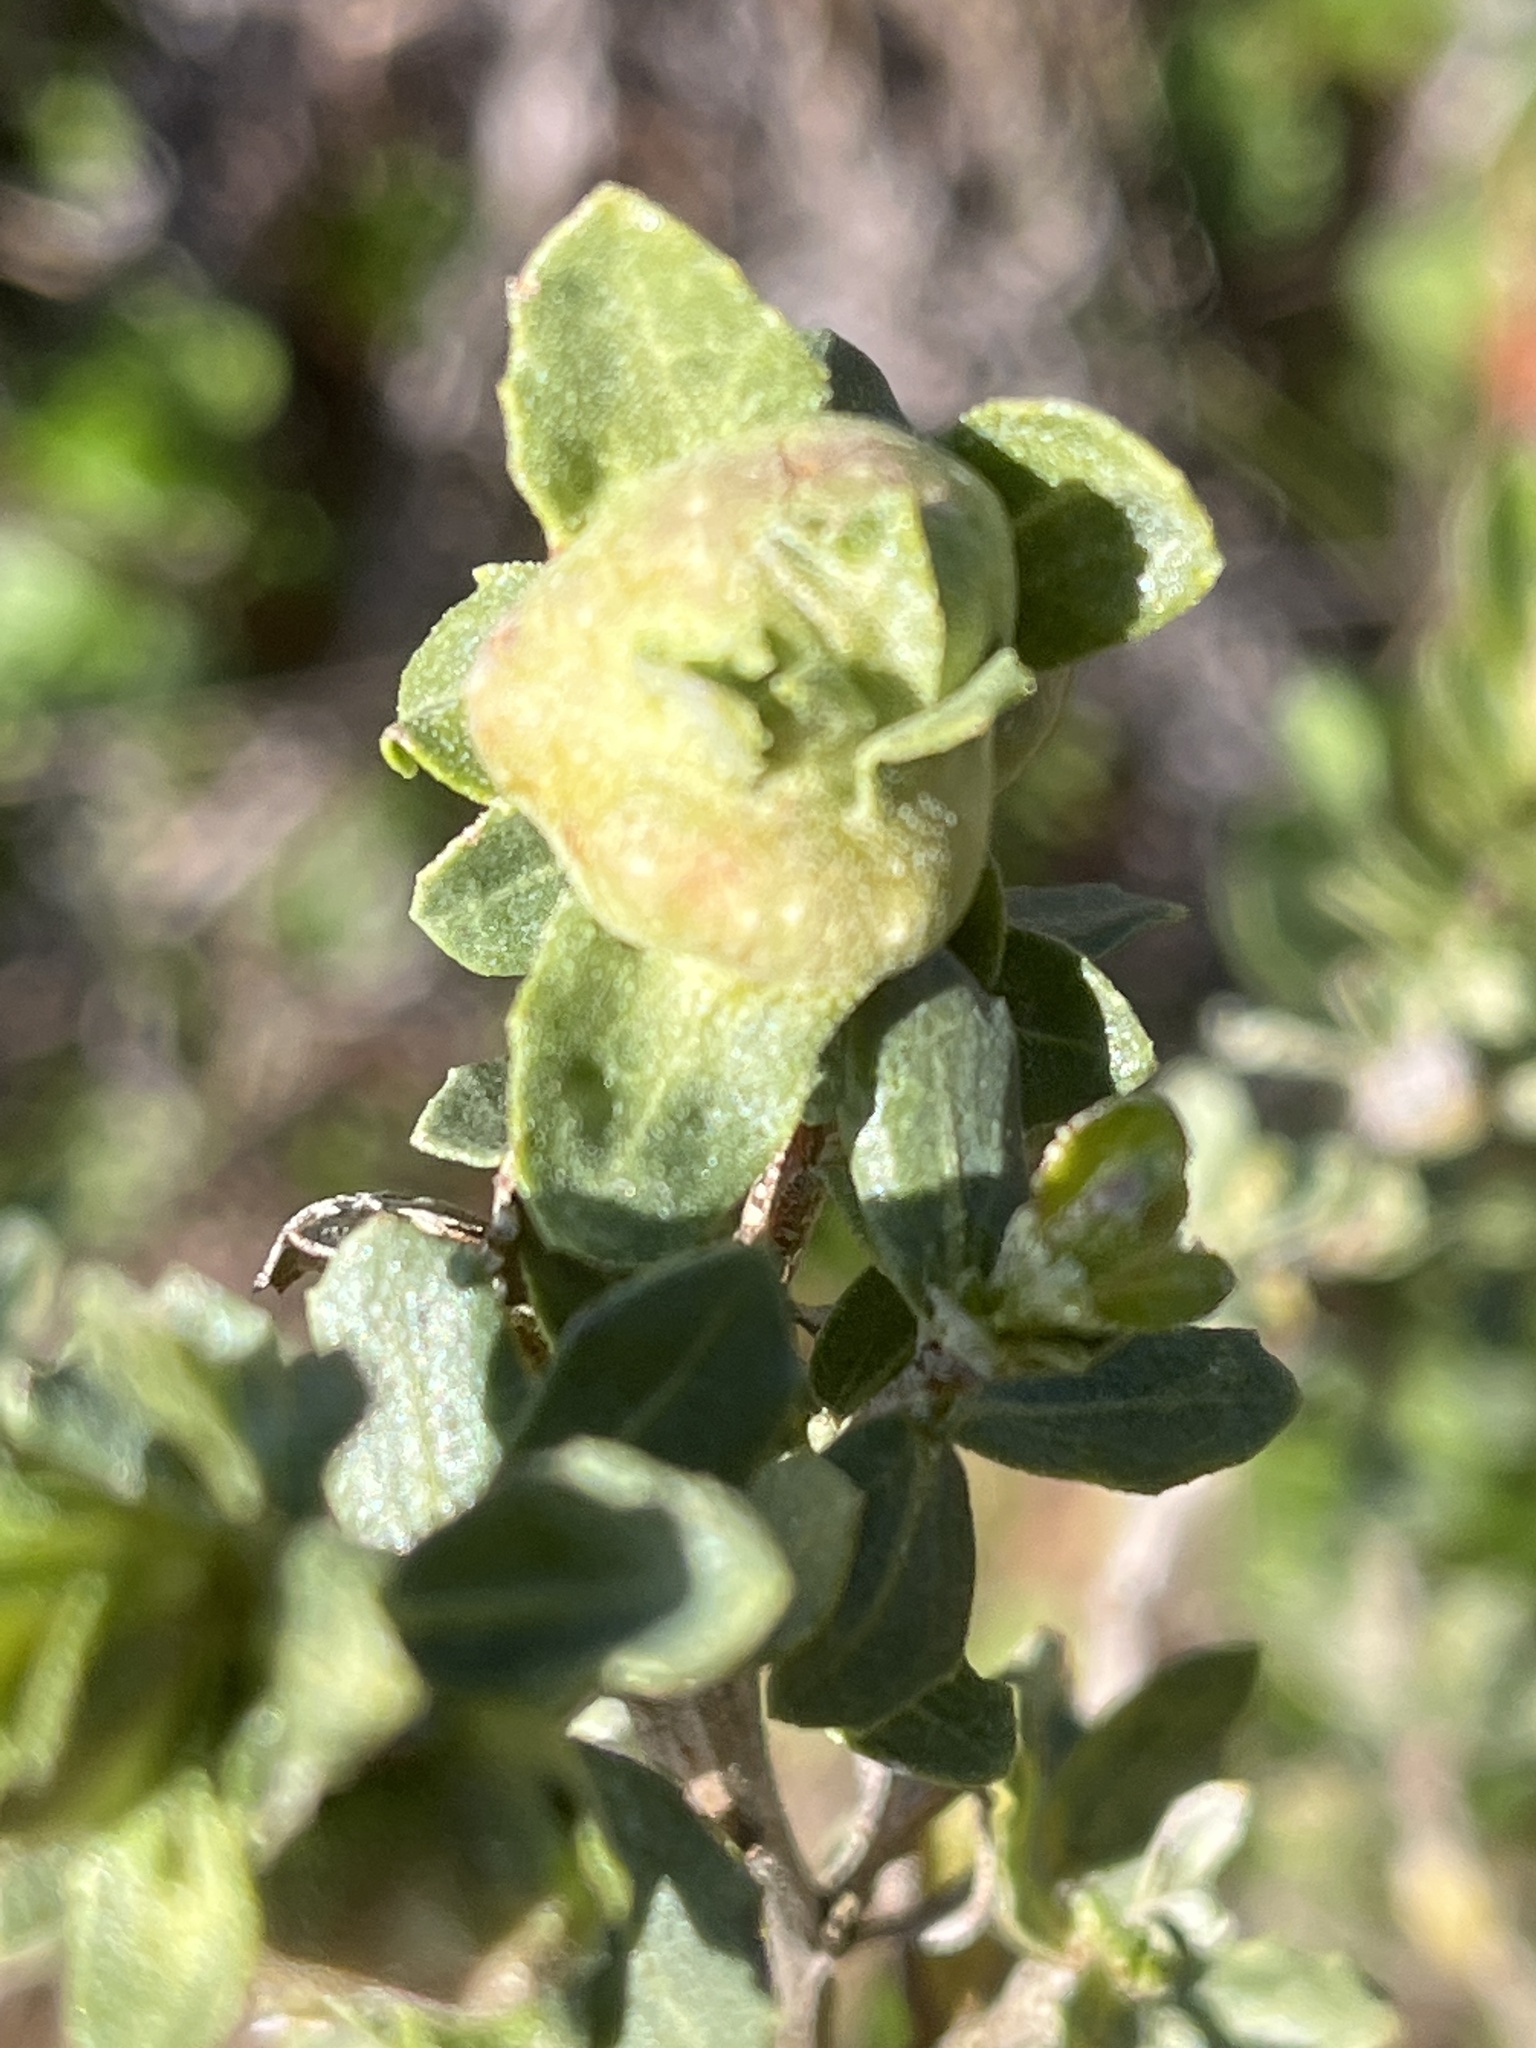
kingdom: Animalia
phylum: Arthropoda
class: Insecta
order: Diptera
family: Cecidomyiidae
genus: Rhopalomyia
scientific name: Rhopalomyia californica
